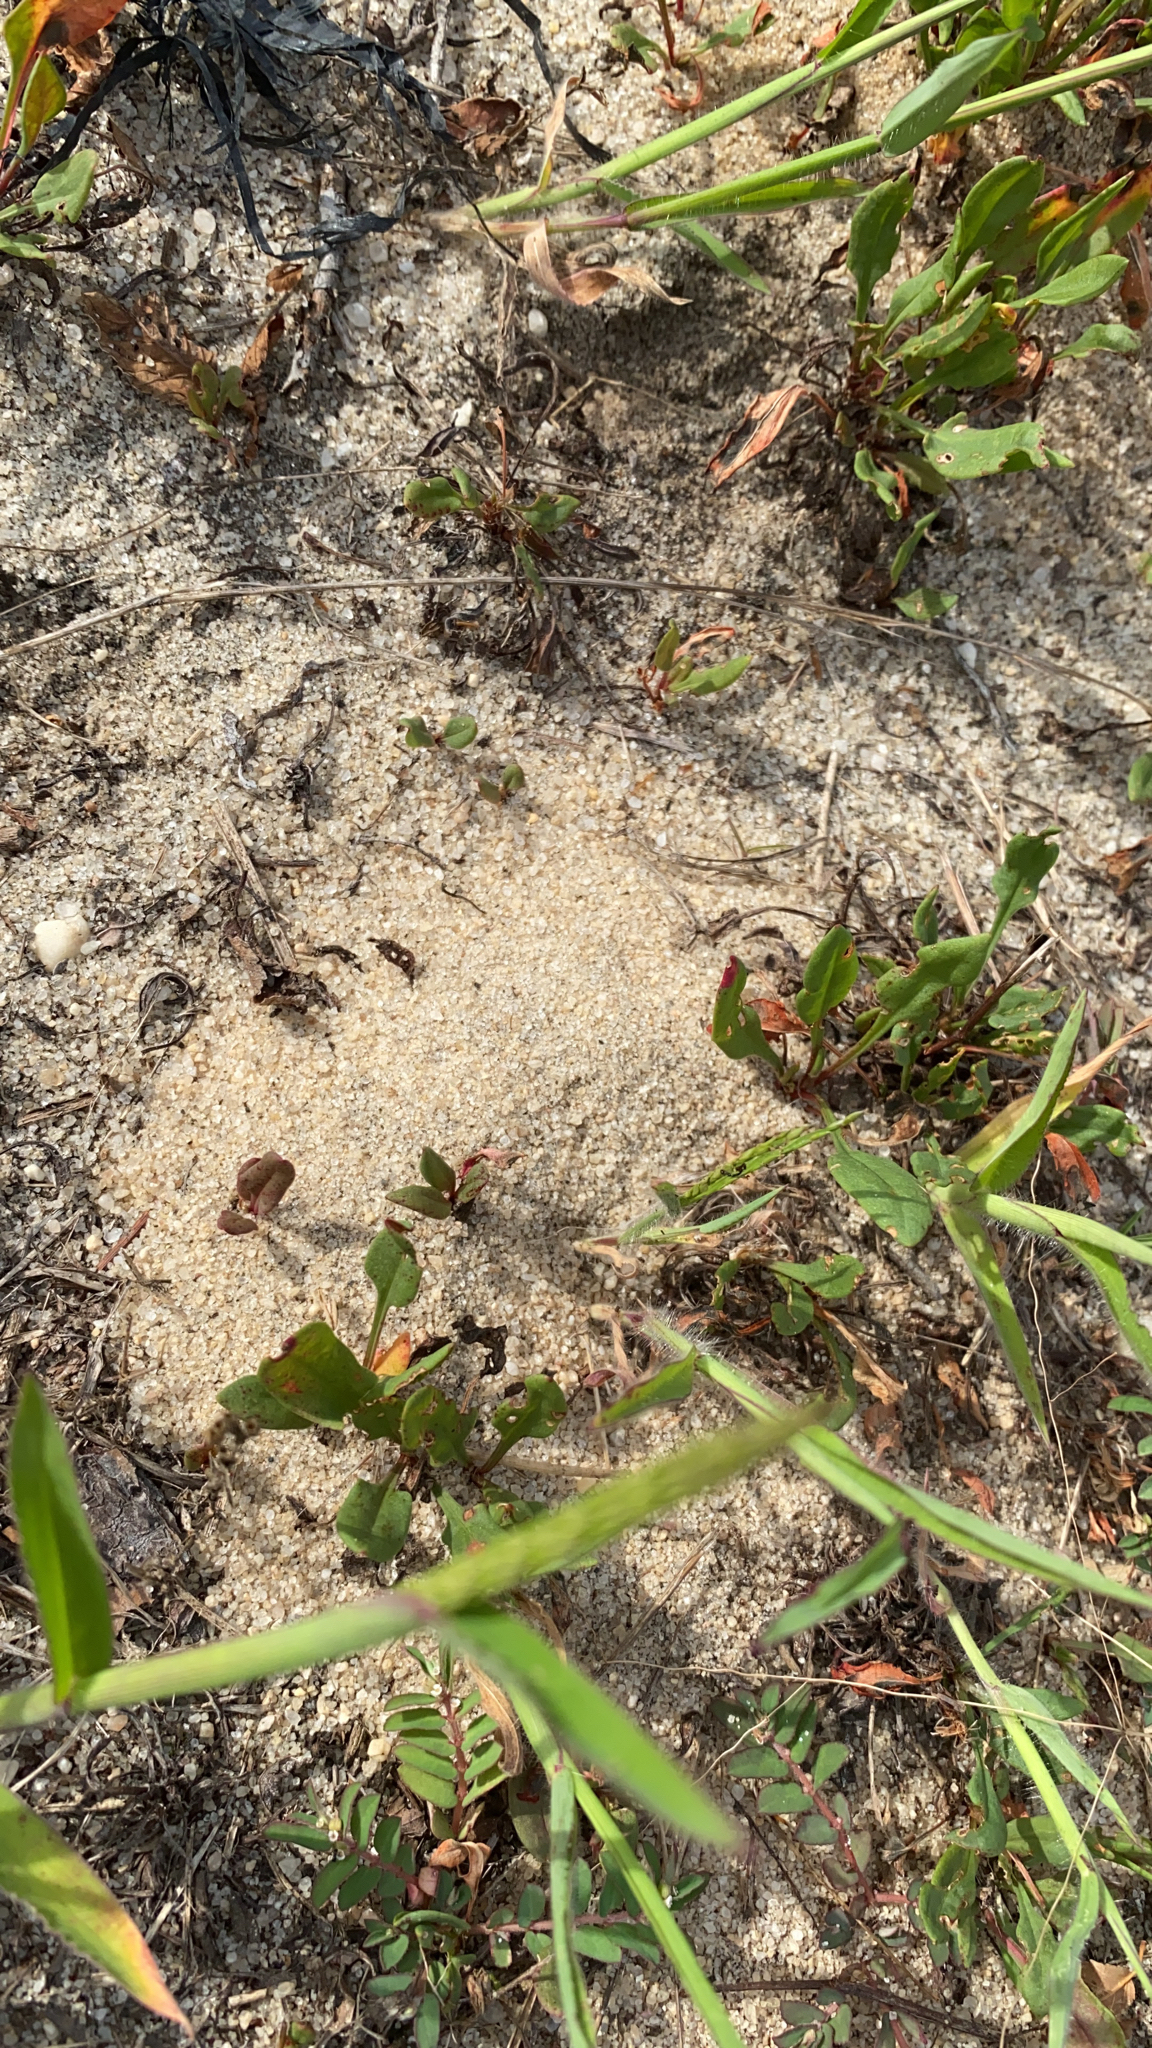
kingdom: Animalia
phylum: Arthropoda
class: Insecta
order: Hymenoptera
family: Formicidae
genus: Trachymyrmex
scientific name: Trachymyrmex septentrionalis
